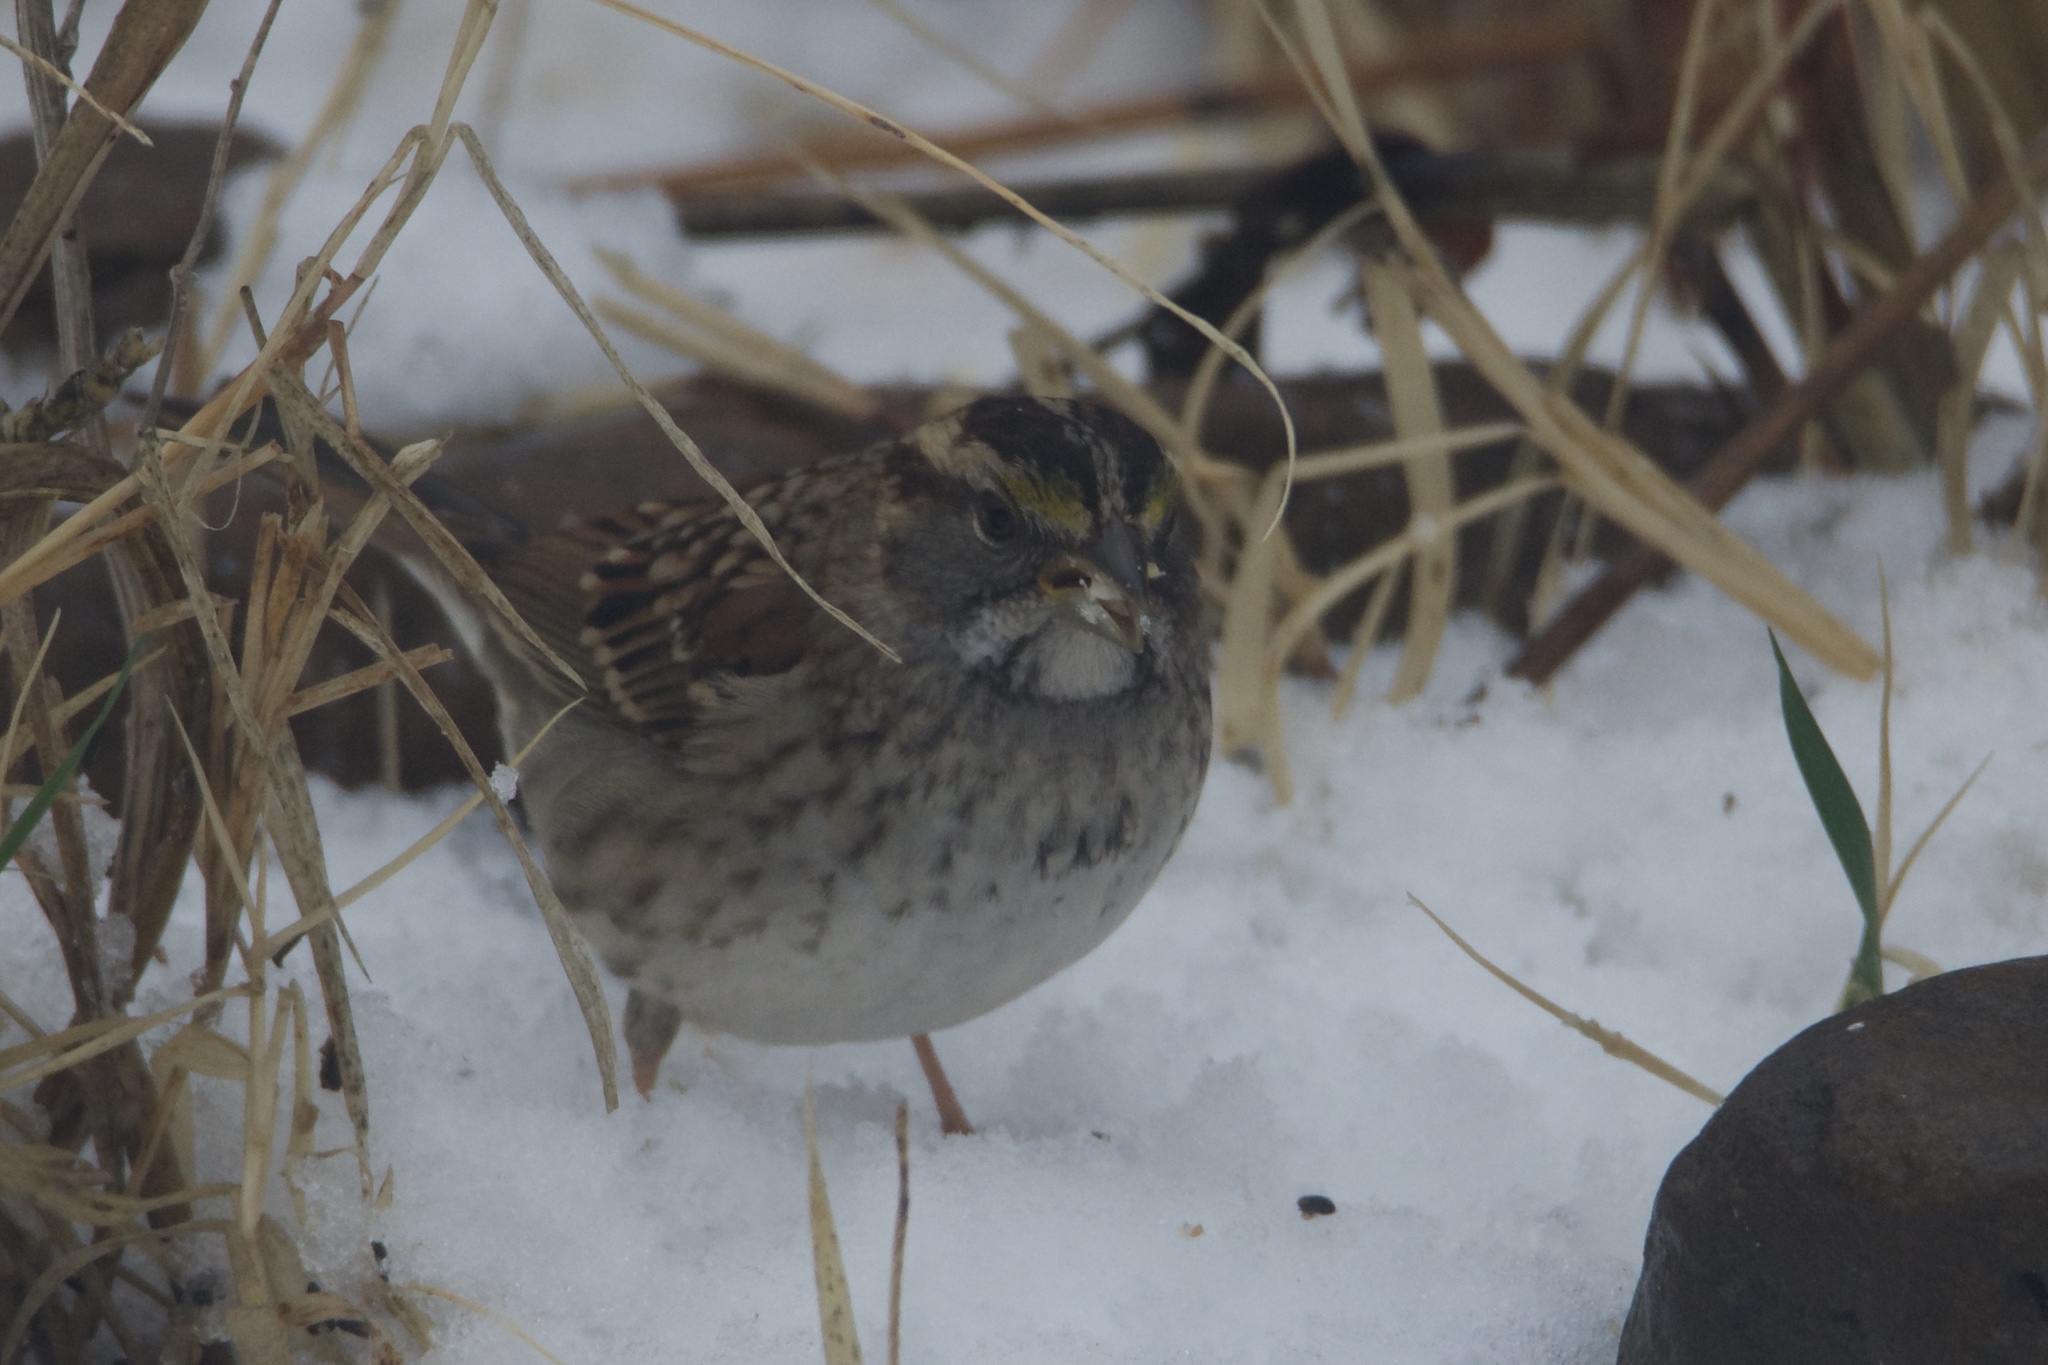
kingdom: Animalia
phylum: Chordata
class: Aves
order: Passeriformes
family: Passerellidae
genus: Zonotrichia
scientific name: Zonotrichia albicollis
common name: White-throated sparrow
